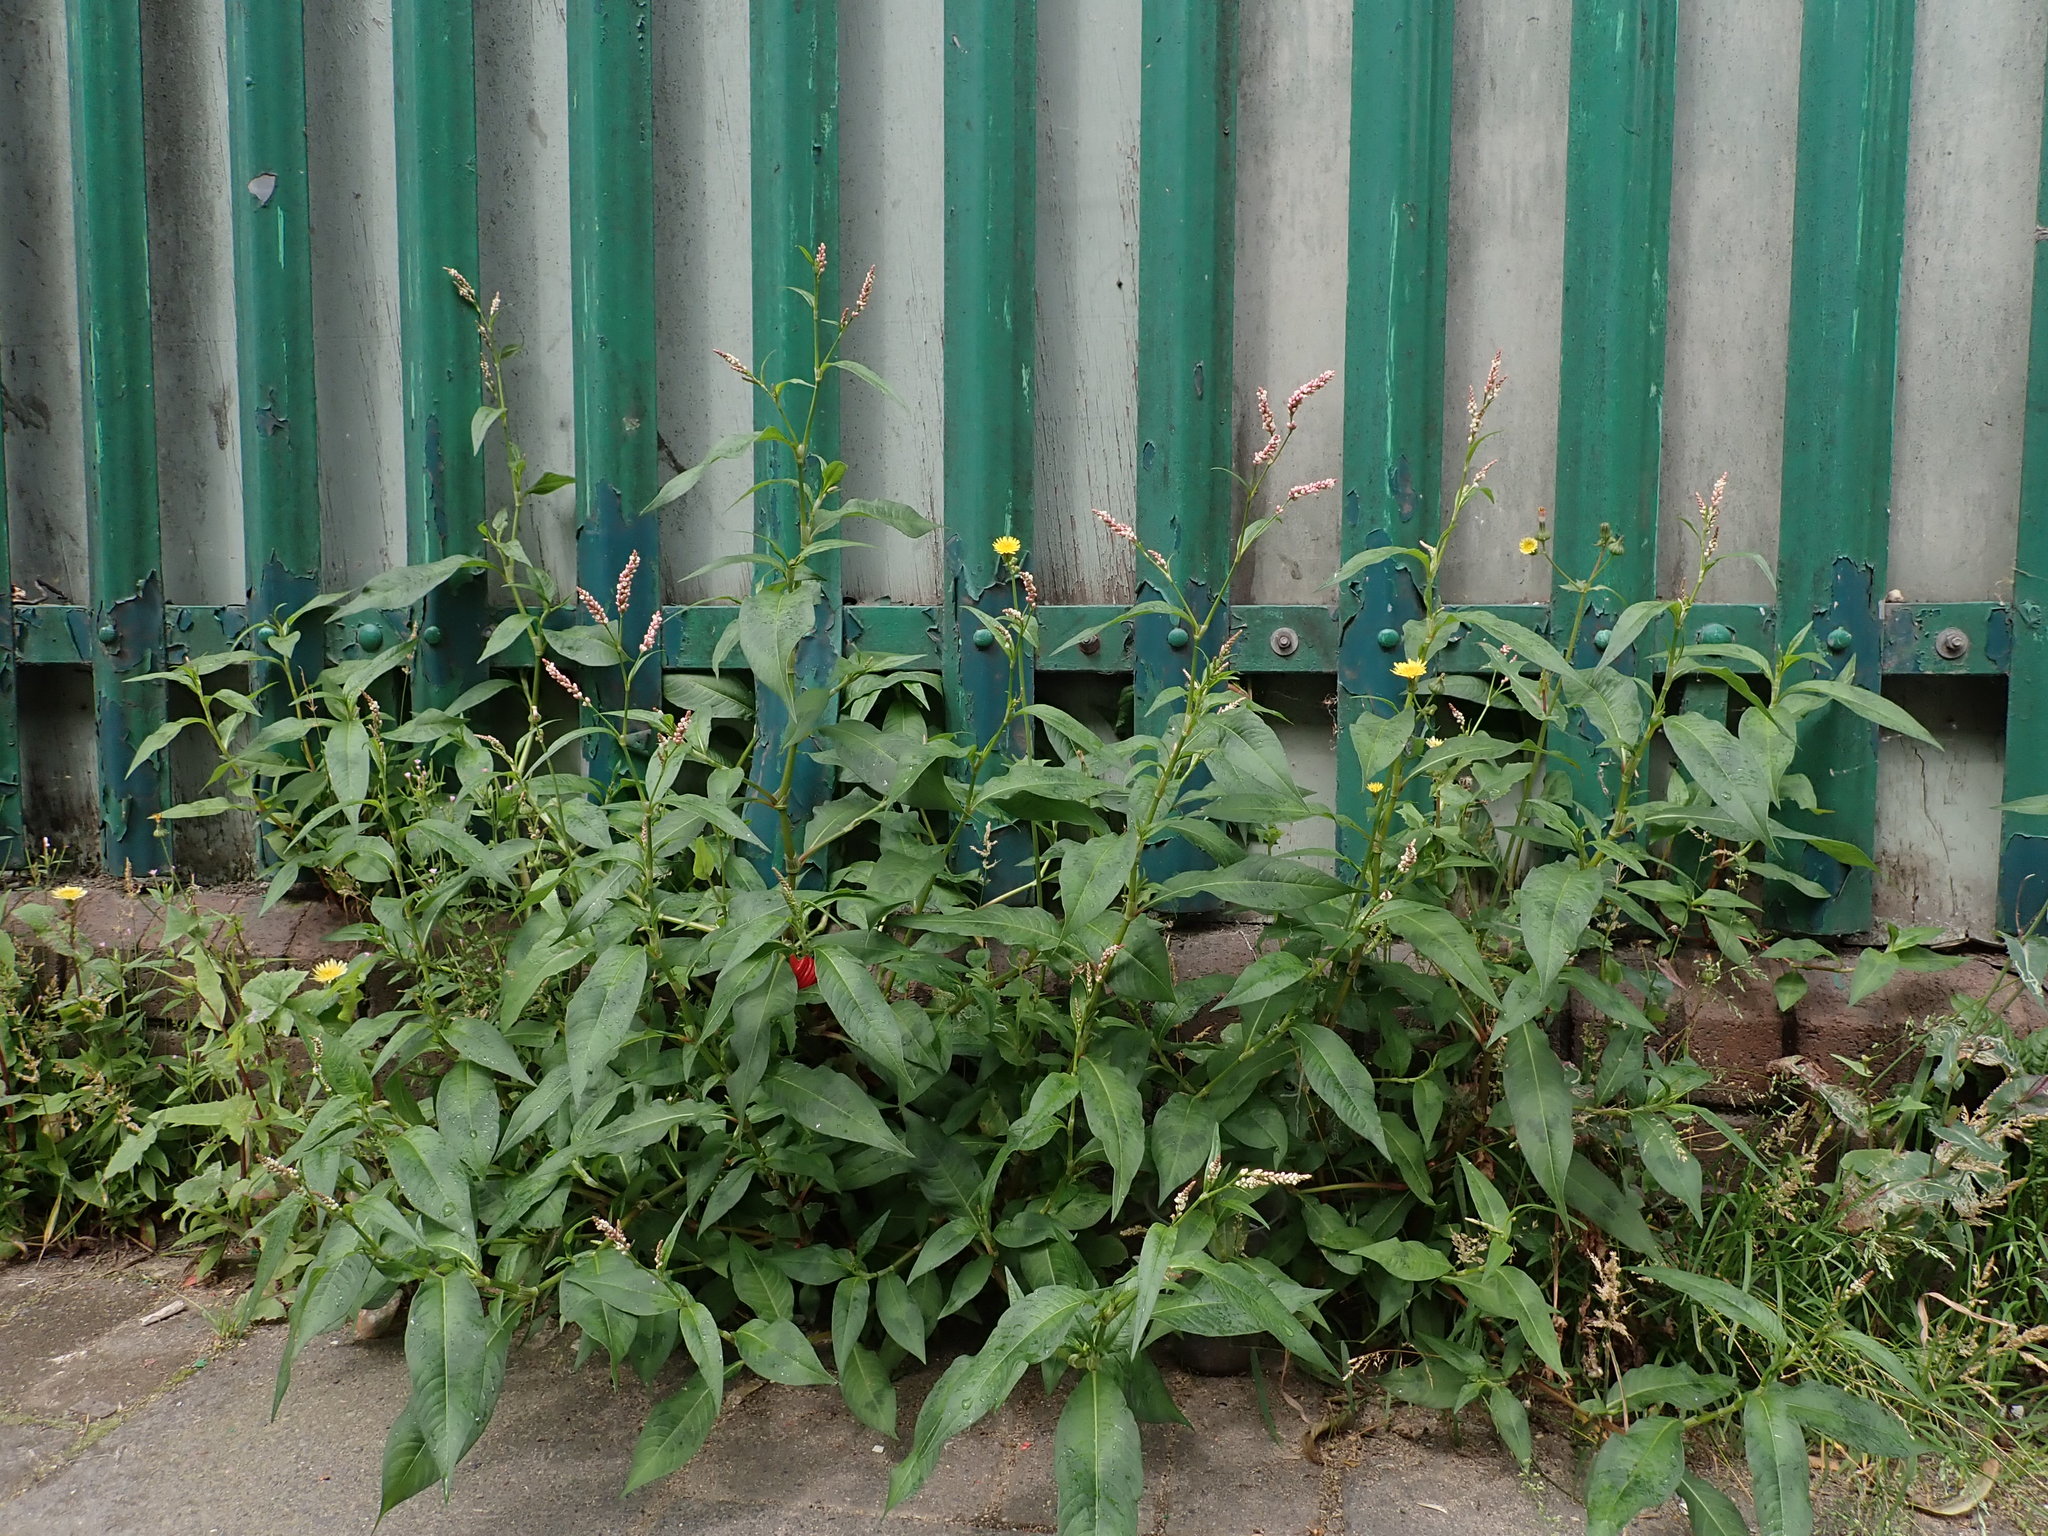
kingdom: Plantae
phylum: Tracheophyta
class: Magnoliopsida
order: Caryophyllales
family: Polygonaceae
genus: Persicaria
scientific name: Persicaria maculosa
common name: Redshank
